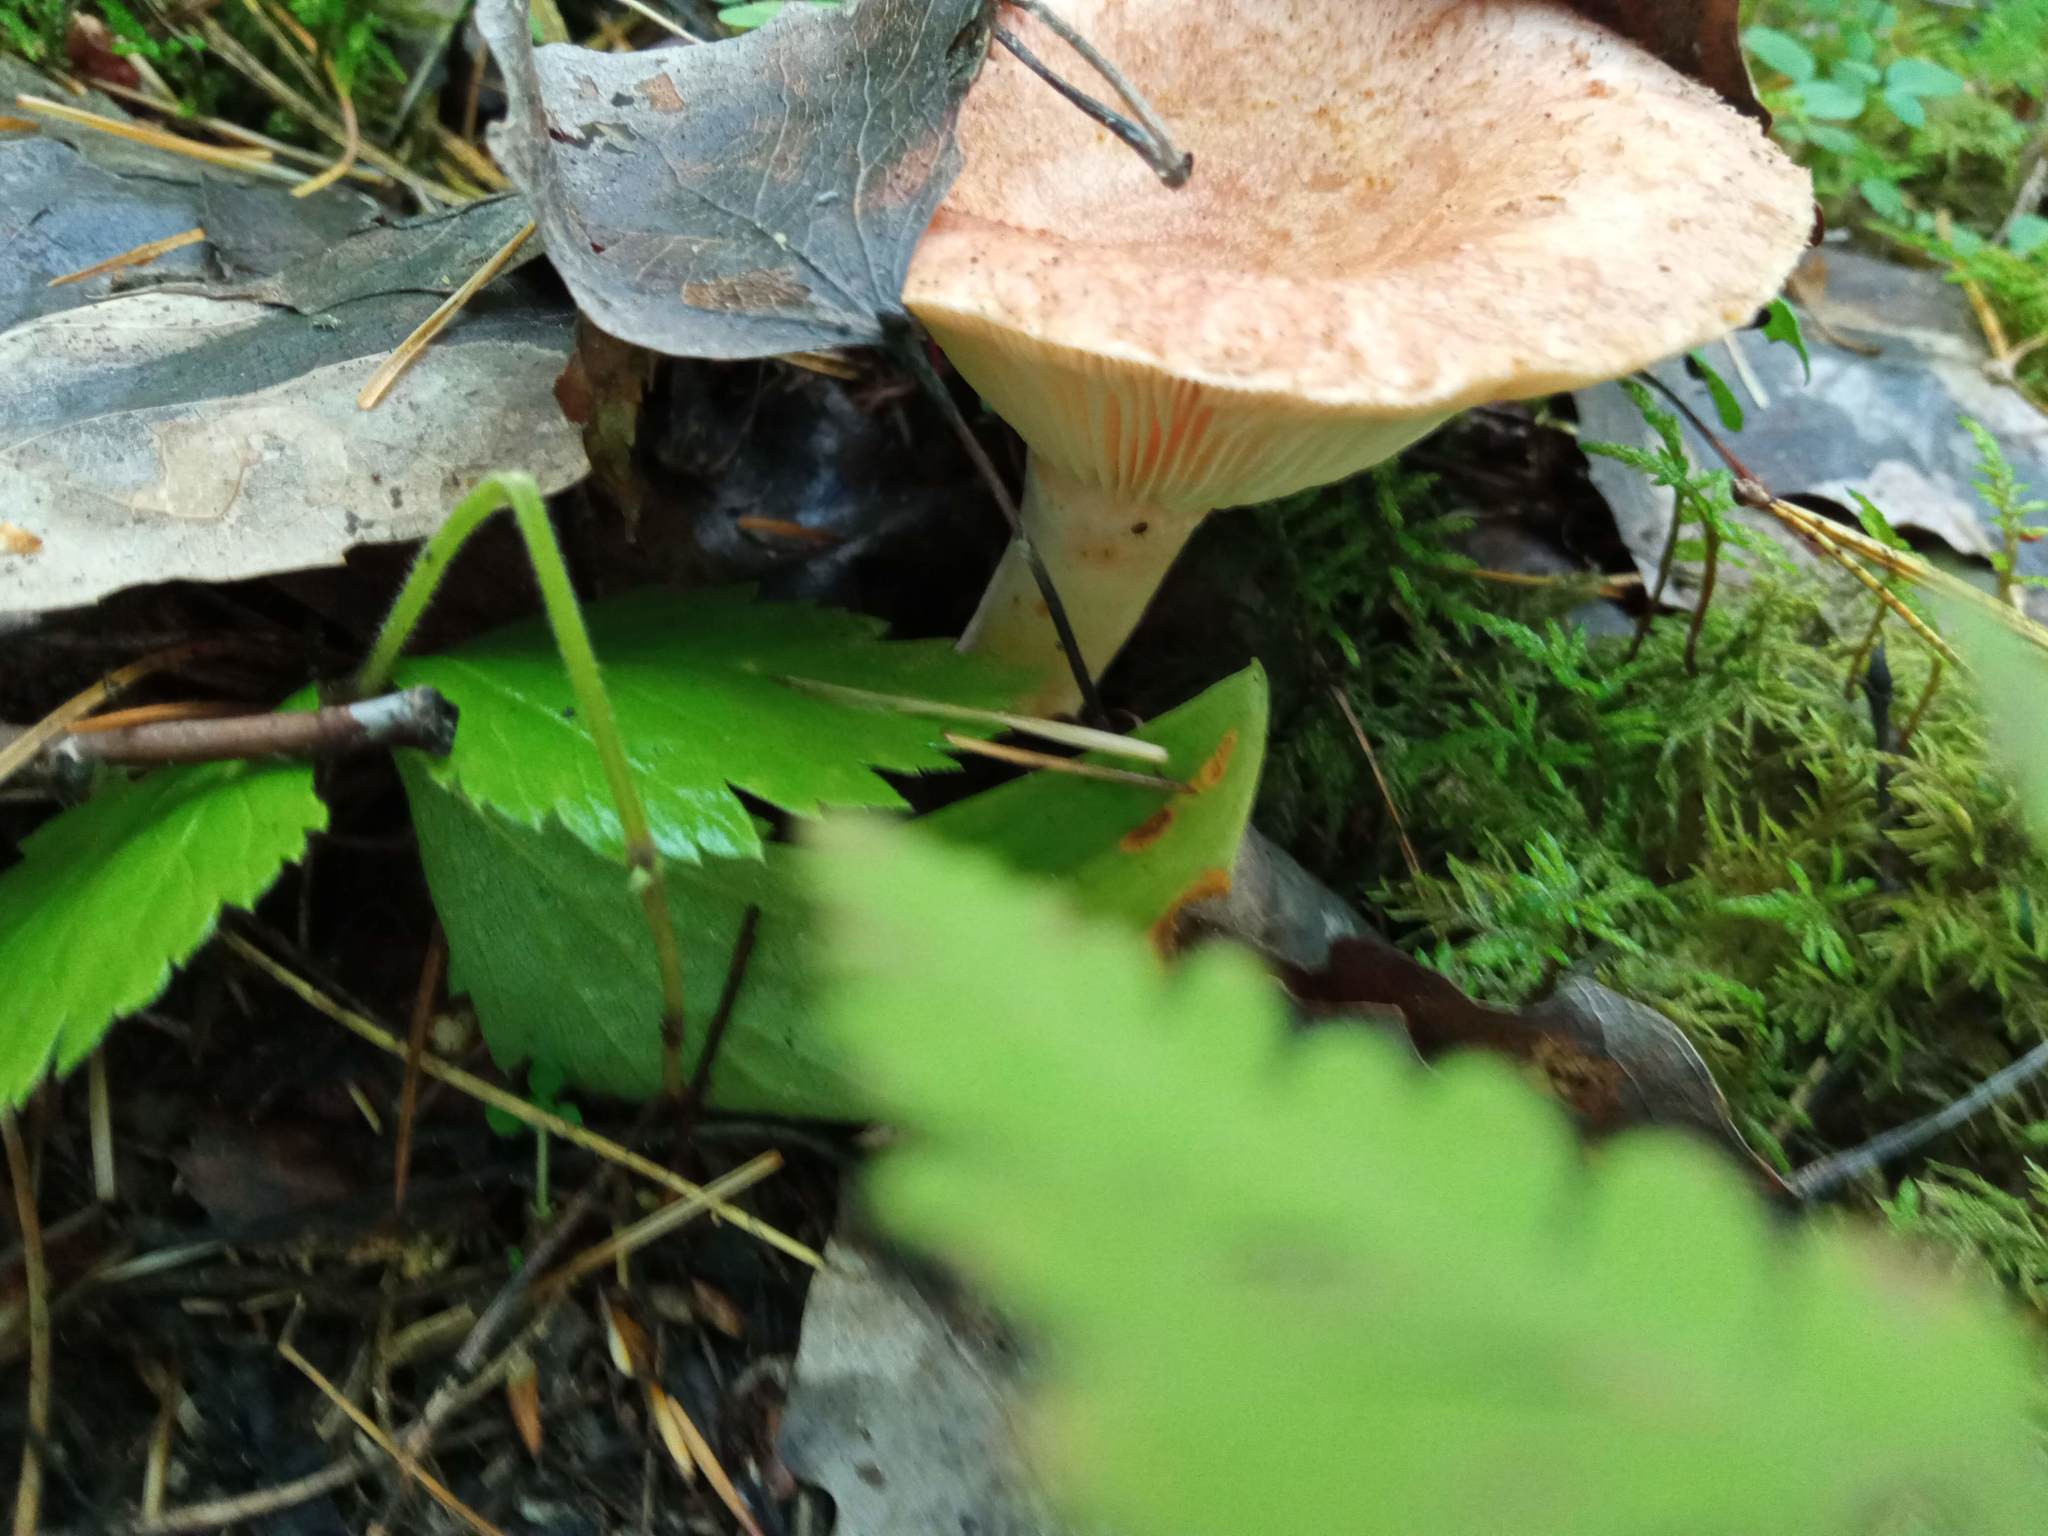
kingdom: Fungi
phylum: Basidiomycota
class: Agaricomycetes
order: Russulales
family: Russulaceae
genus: Lactarius
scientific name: Lactarius torminosus
